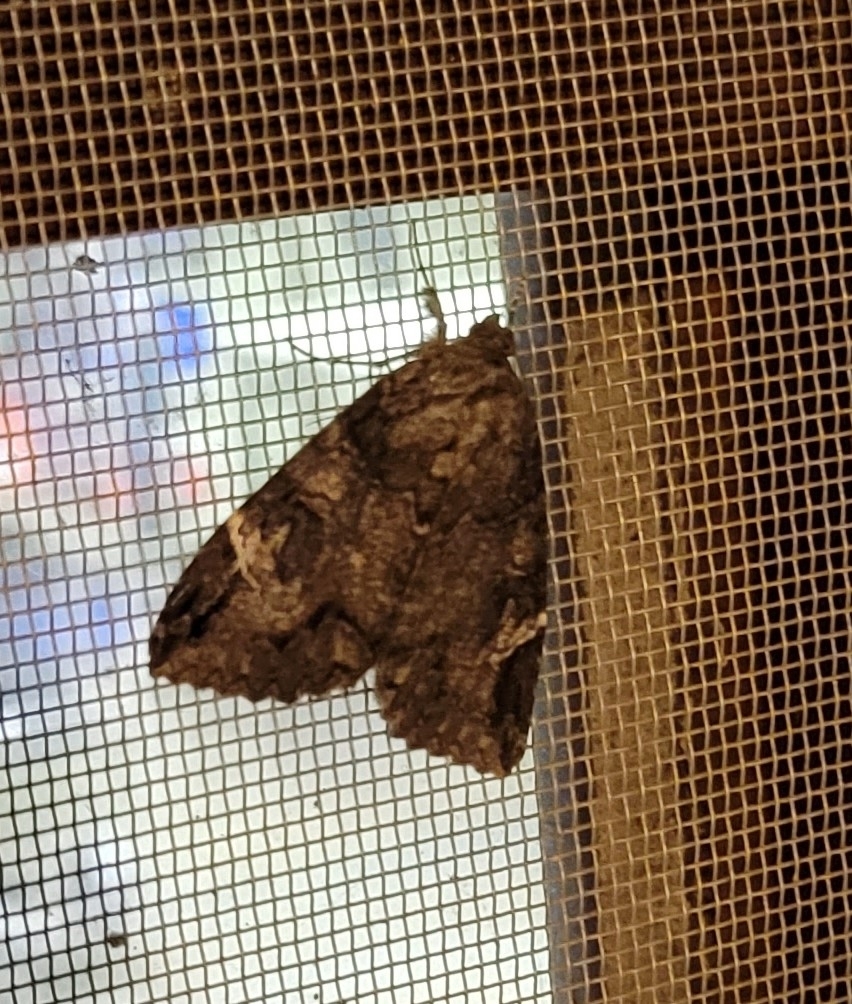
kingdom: Animalia
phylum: Arthropoda
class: Insecta
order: Lepidoptera
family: Erebidae
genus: Euparthenos
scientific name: Euparthenos nubilis
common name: Locust underwing
